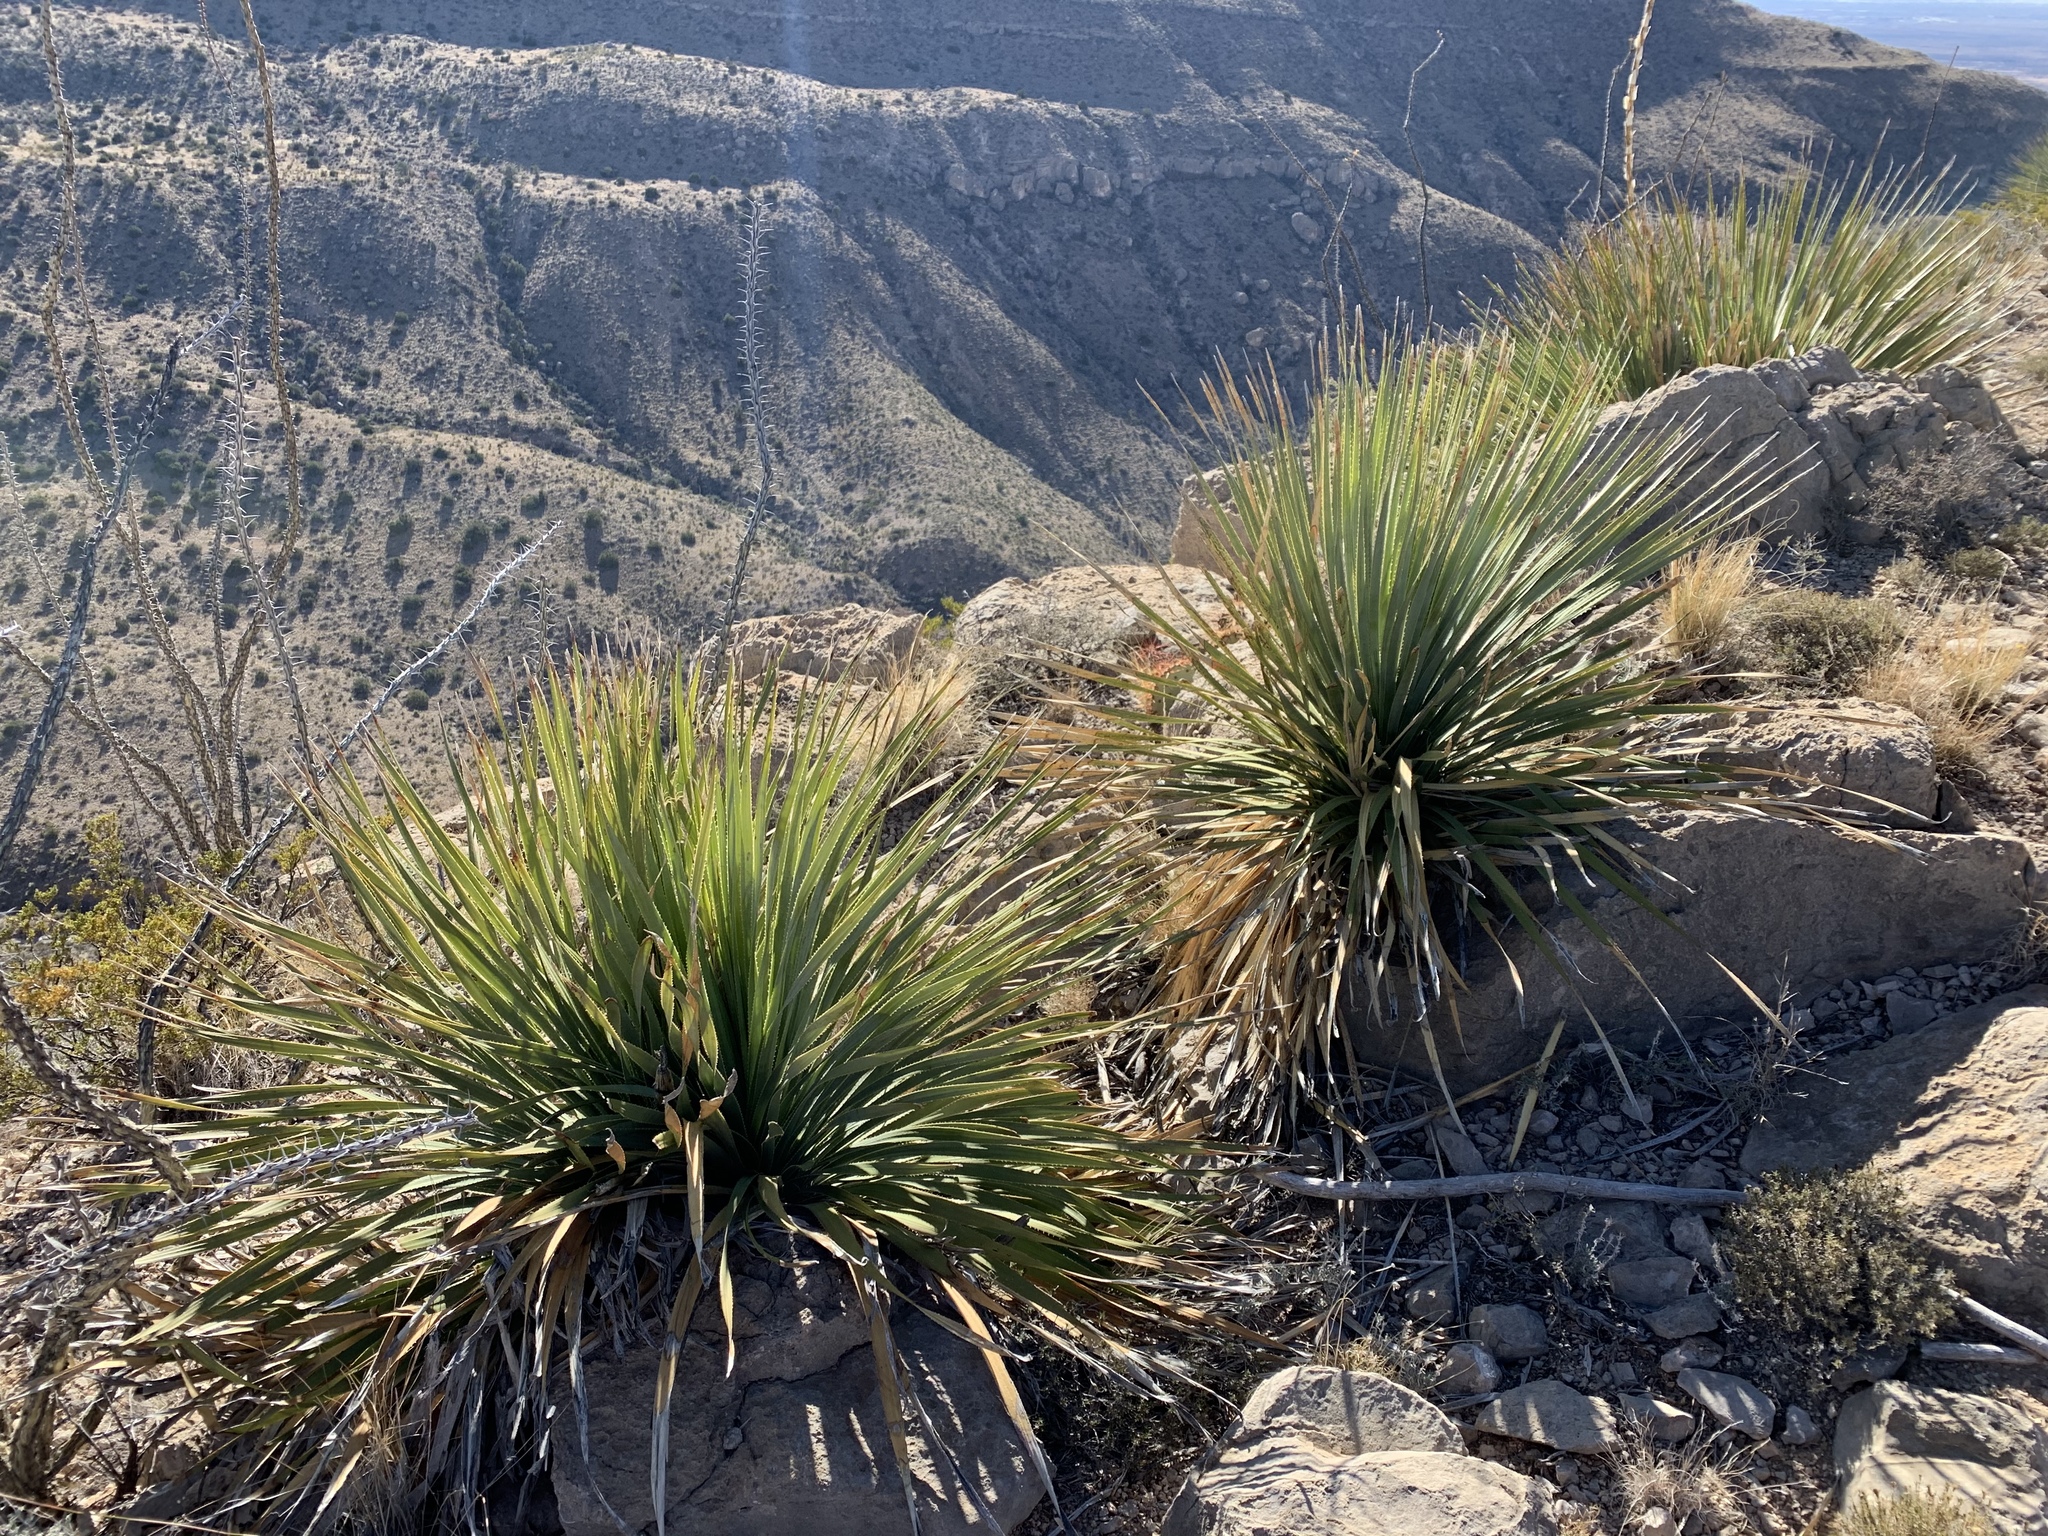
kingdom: Plantae
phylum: Tracheophyta
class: Liliopsida
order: Asparagales
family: Asparagaceae
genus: Dasylirion
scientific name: Dasylirion wheeleri
